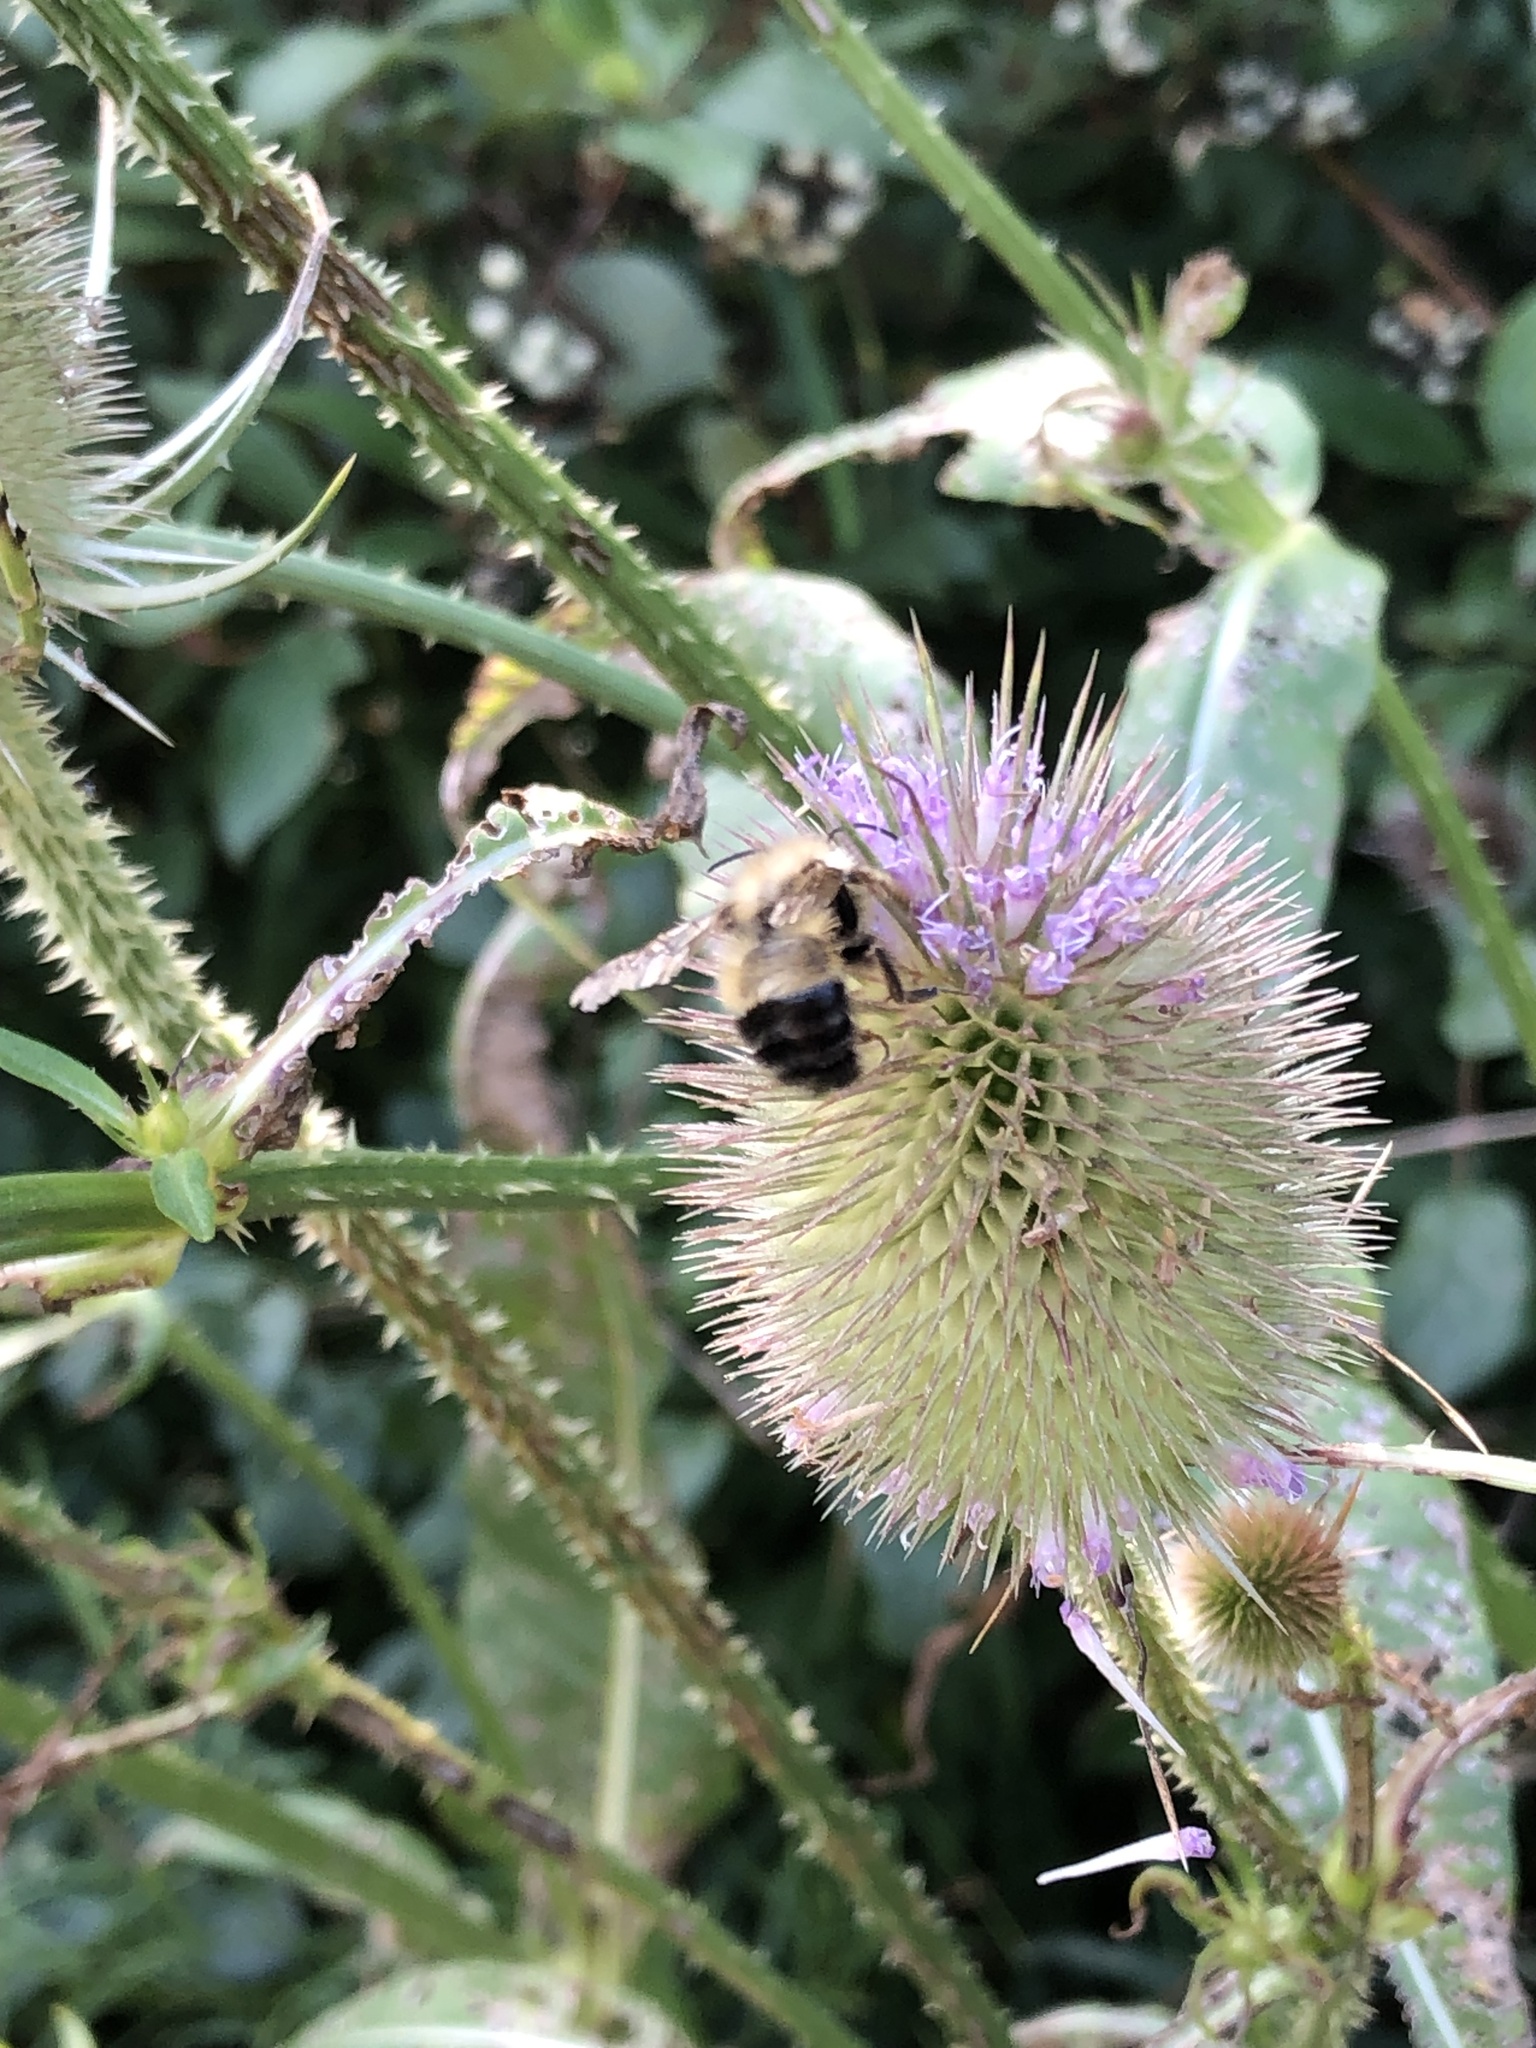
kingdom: Animalia
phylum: Arthropoda
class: Insecta
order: Hymenoptera
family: Apidae
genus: Pyrobombus
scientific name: Pyrobombus
